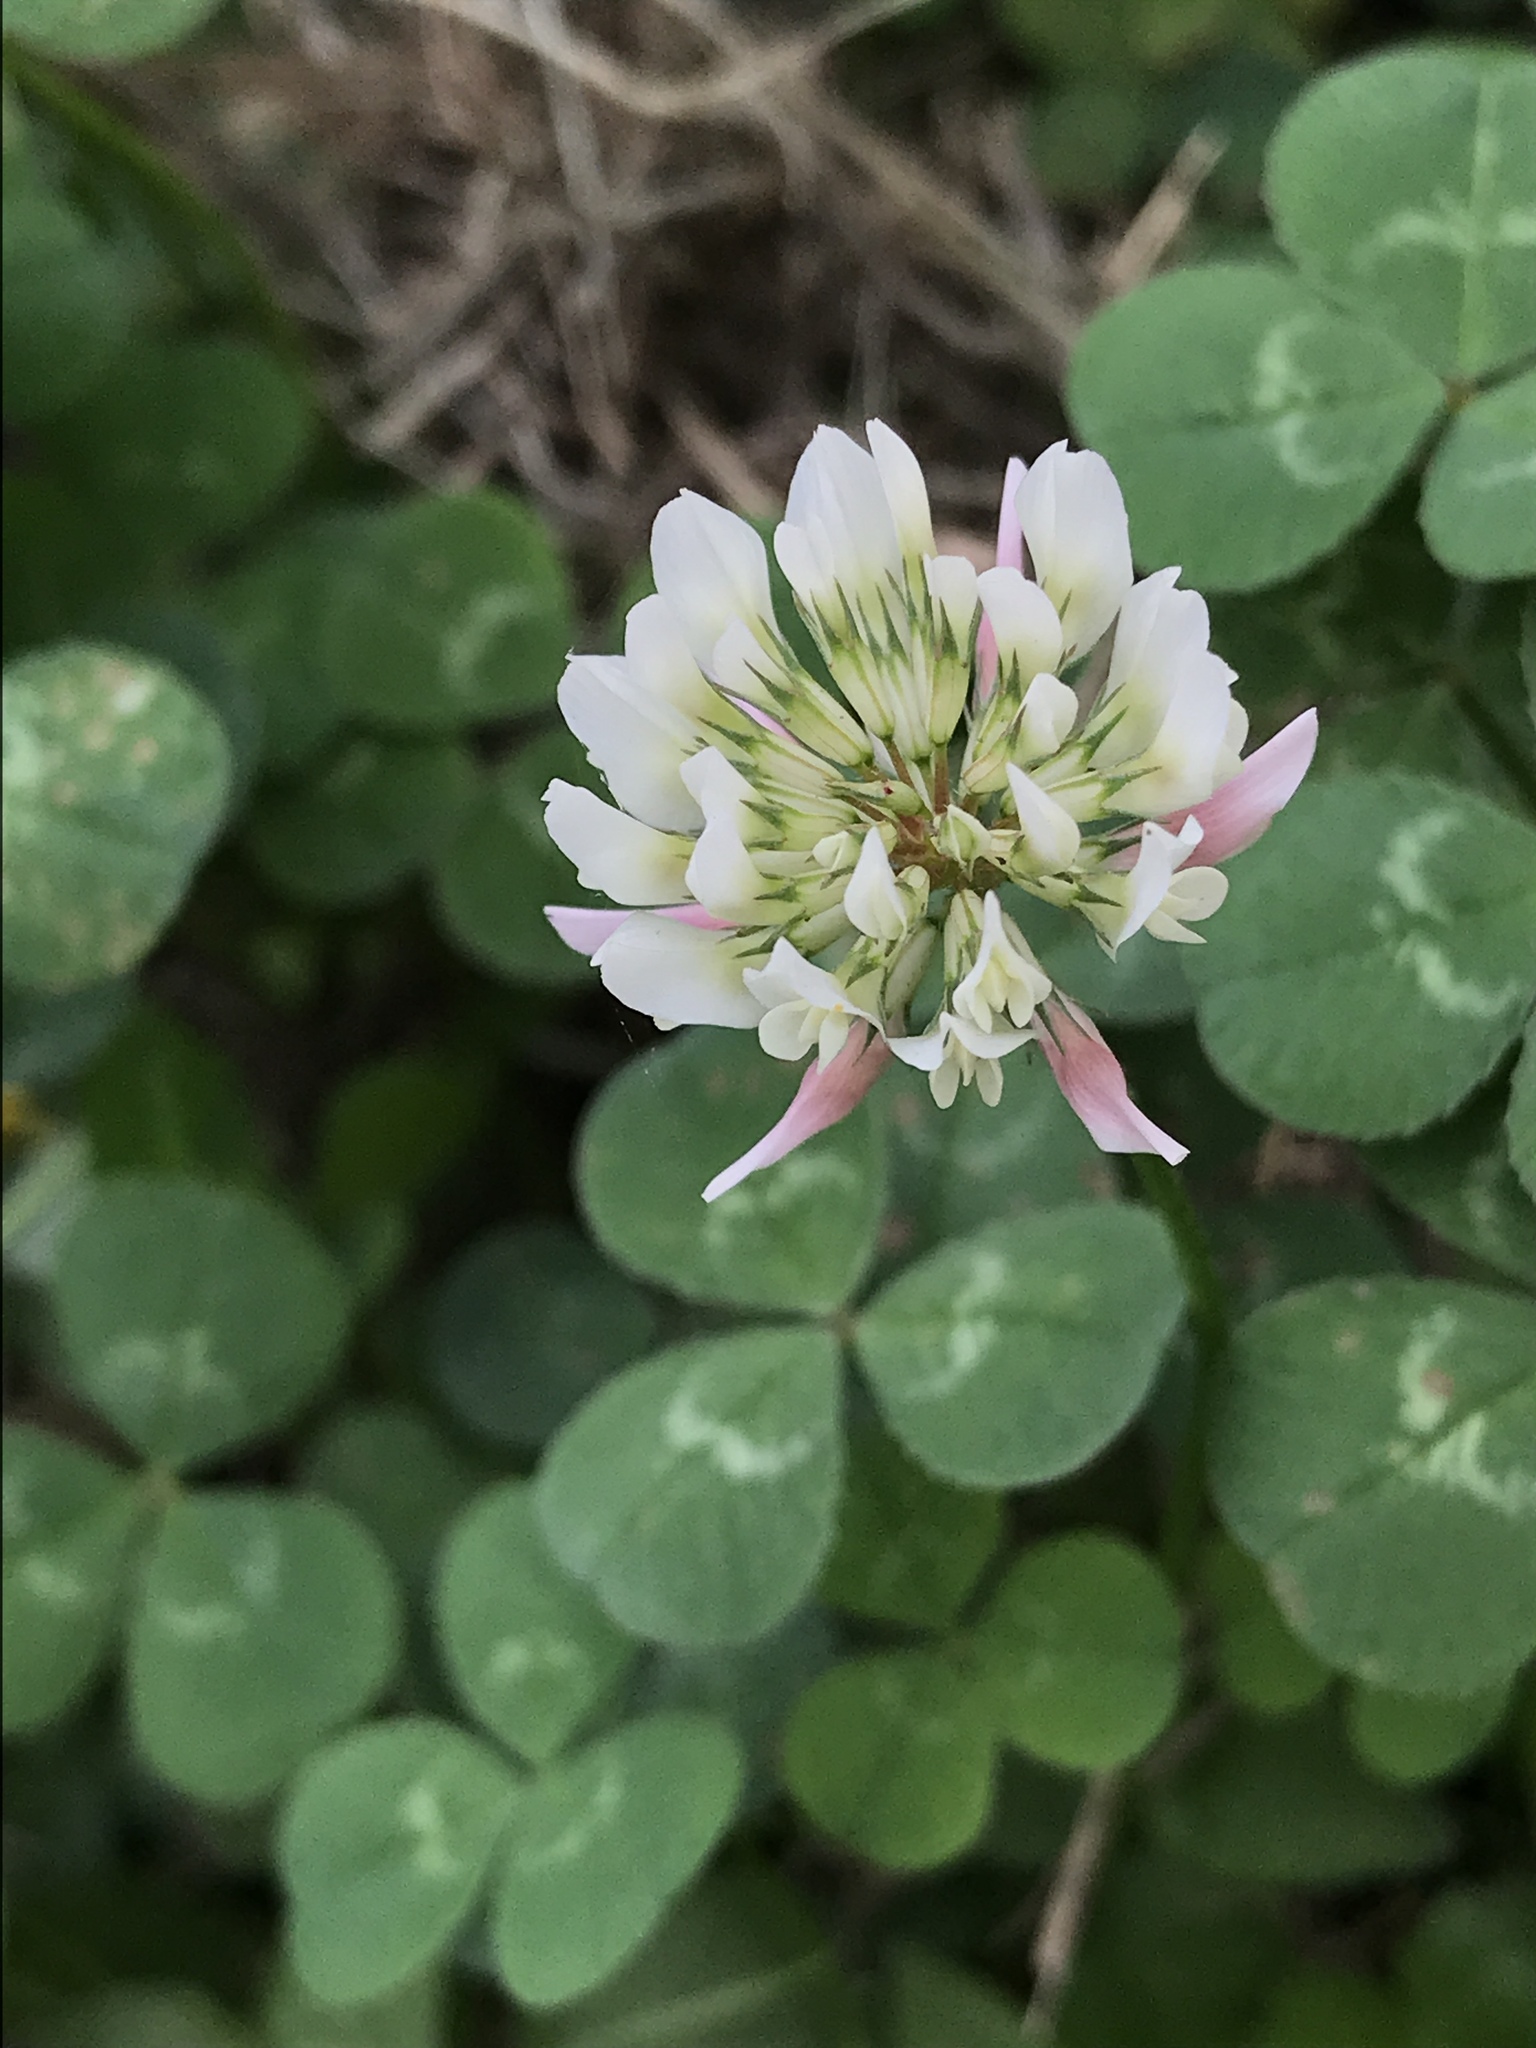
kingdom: Plantae
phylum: Tracheophyta
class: Magnoliopsida
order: Fabales
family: Fabaceae
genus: Trifolium
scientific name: Trifolium repens
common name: White clover
